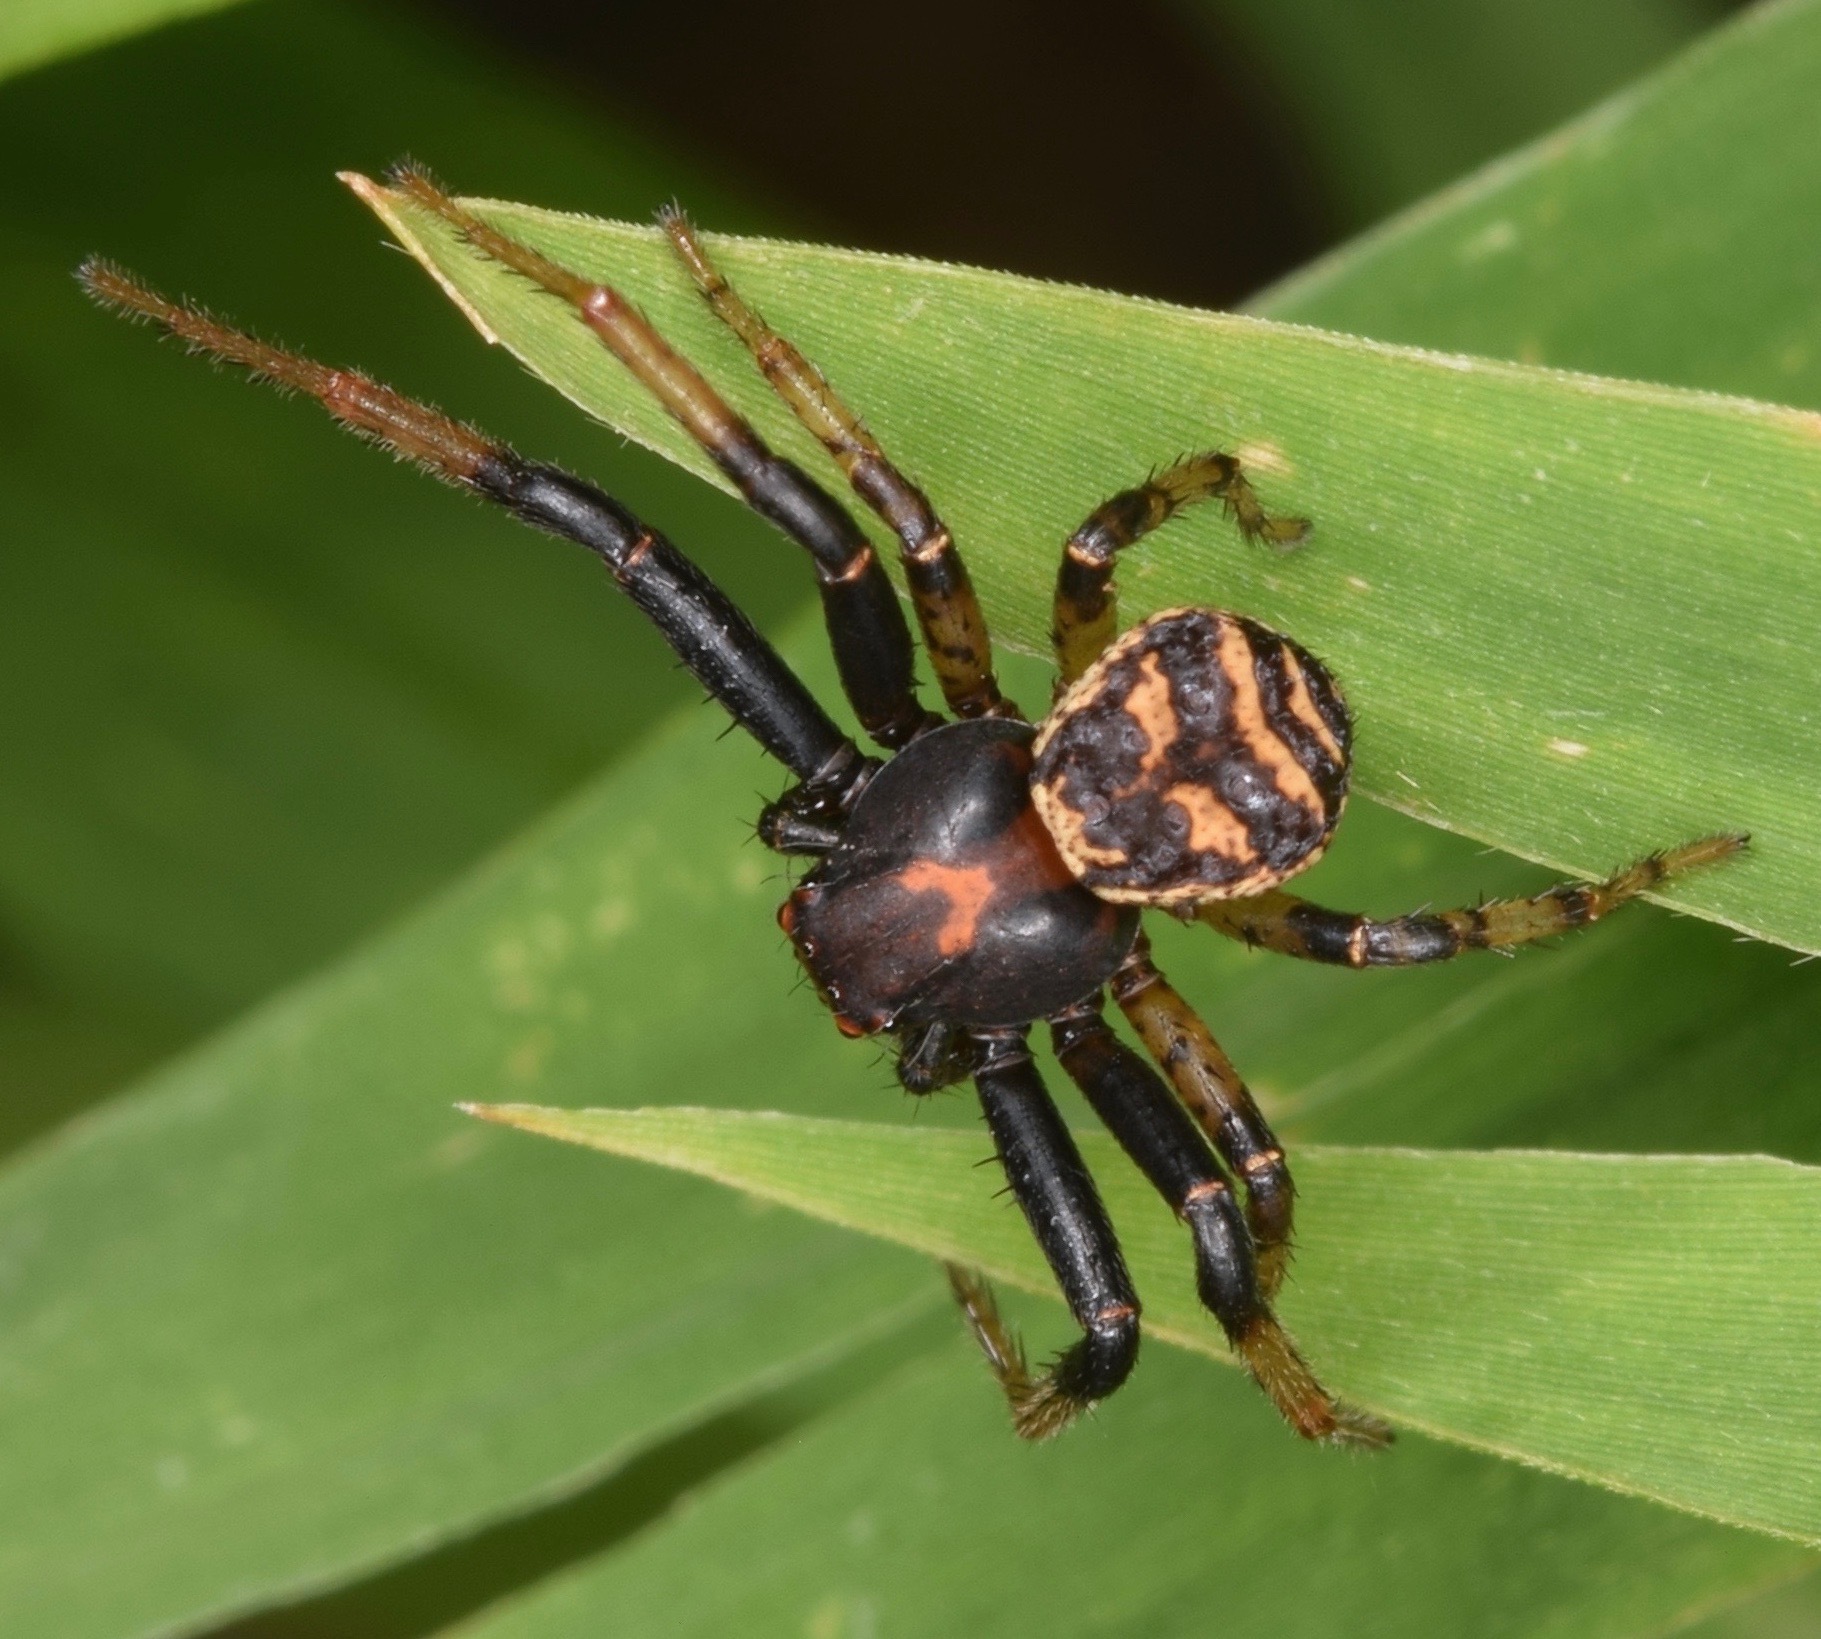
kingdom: Animalia
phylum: Arthropoda
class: Arachnida
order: Araneae
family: Thomisidae
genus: Xysticus
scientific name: Xysticus fraternus
